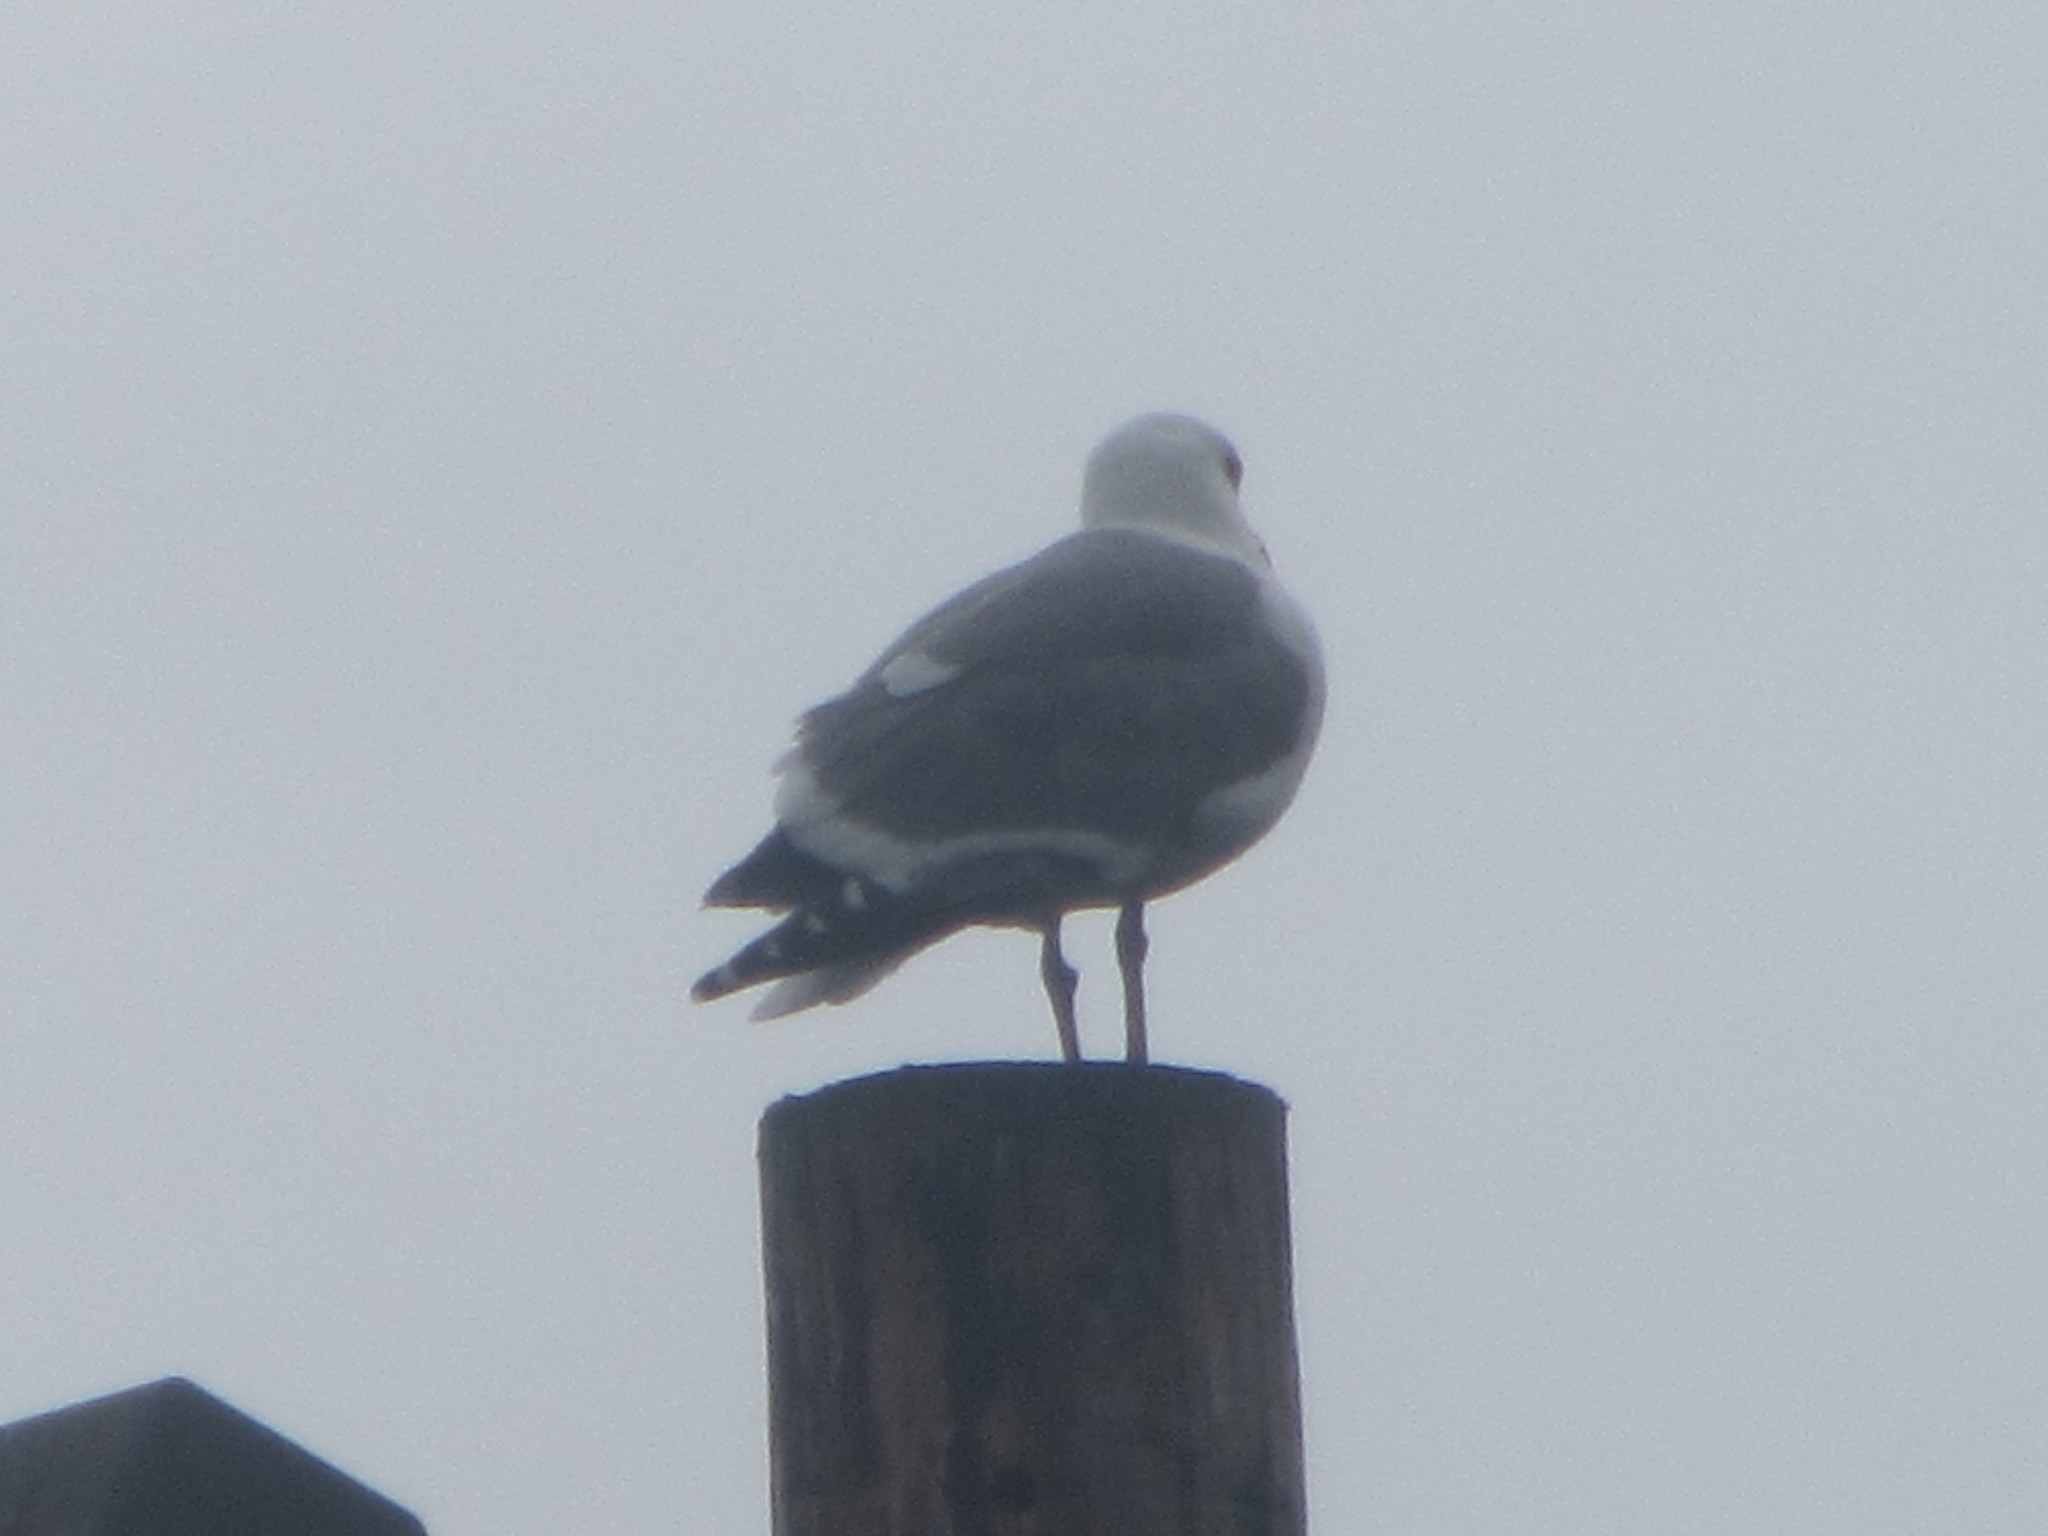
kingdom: Animalia
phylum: Chordata
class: Aves
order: Charadriiformes
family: Laridae
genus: Larus
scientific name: Larus occidentalis
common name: Western gull
